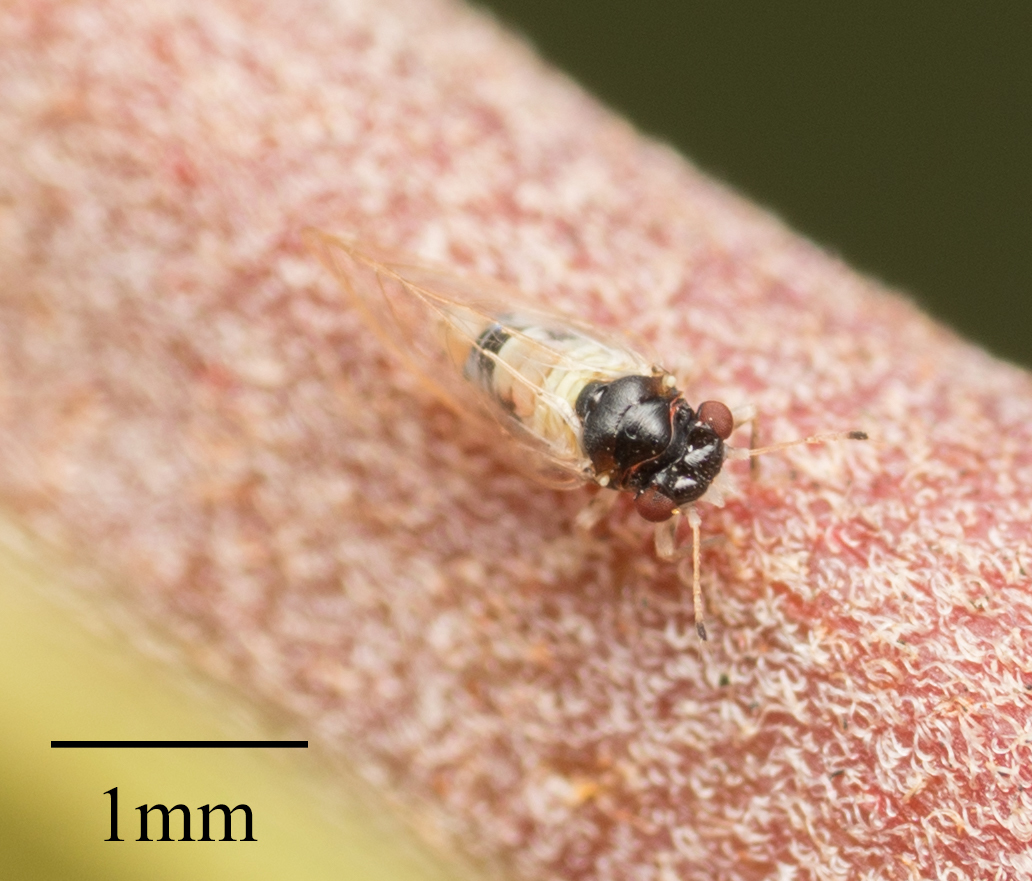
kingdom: Animalia
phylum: Arthropoda
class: Insecta
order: Hemiptera
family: Calophyidae
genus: Calophya
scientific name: Calophya californica
